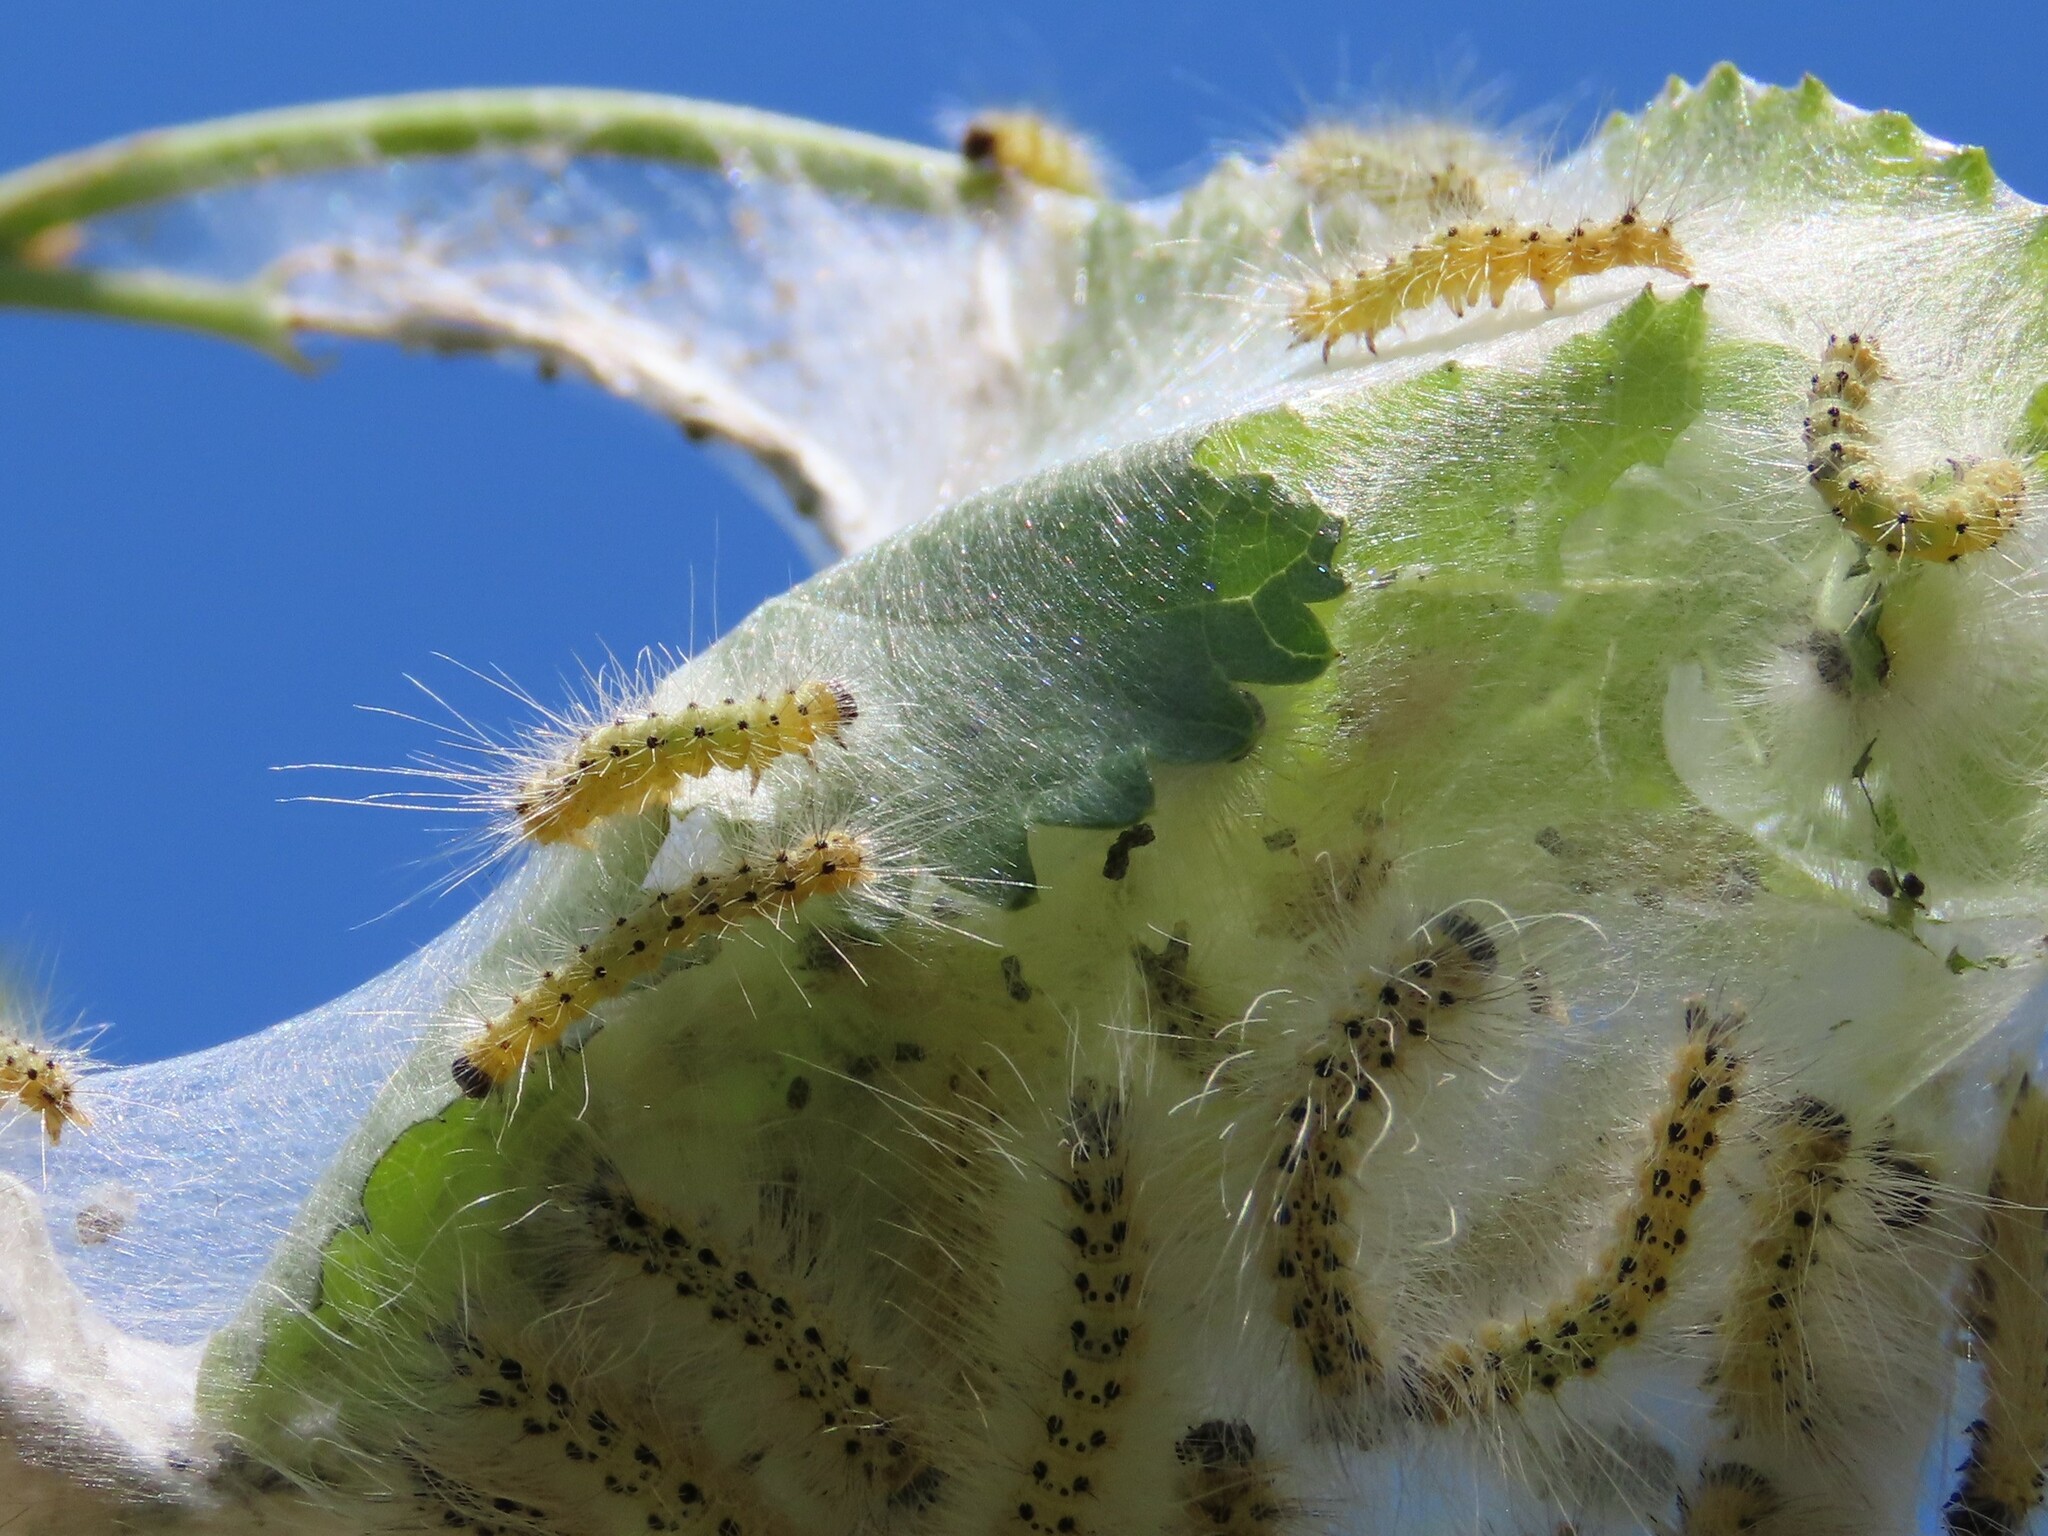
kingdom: Animalia
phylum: Arthropoda
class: Insecta
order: Lepidoptera
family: Erebidae
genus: Hyphantria
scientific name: Hyphantria cunea
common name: American white moth
